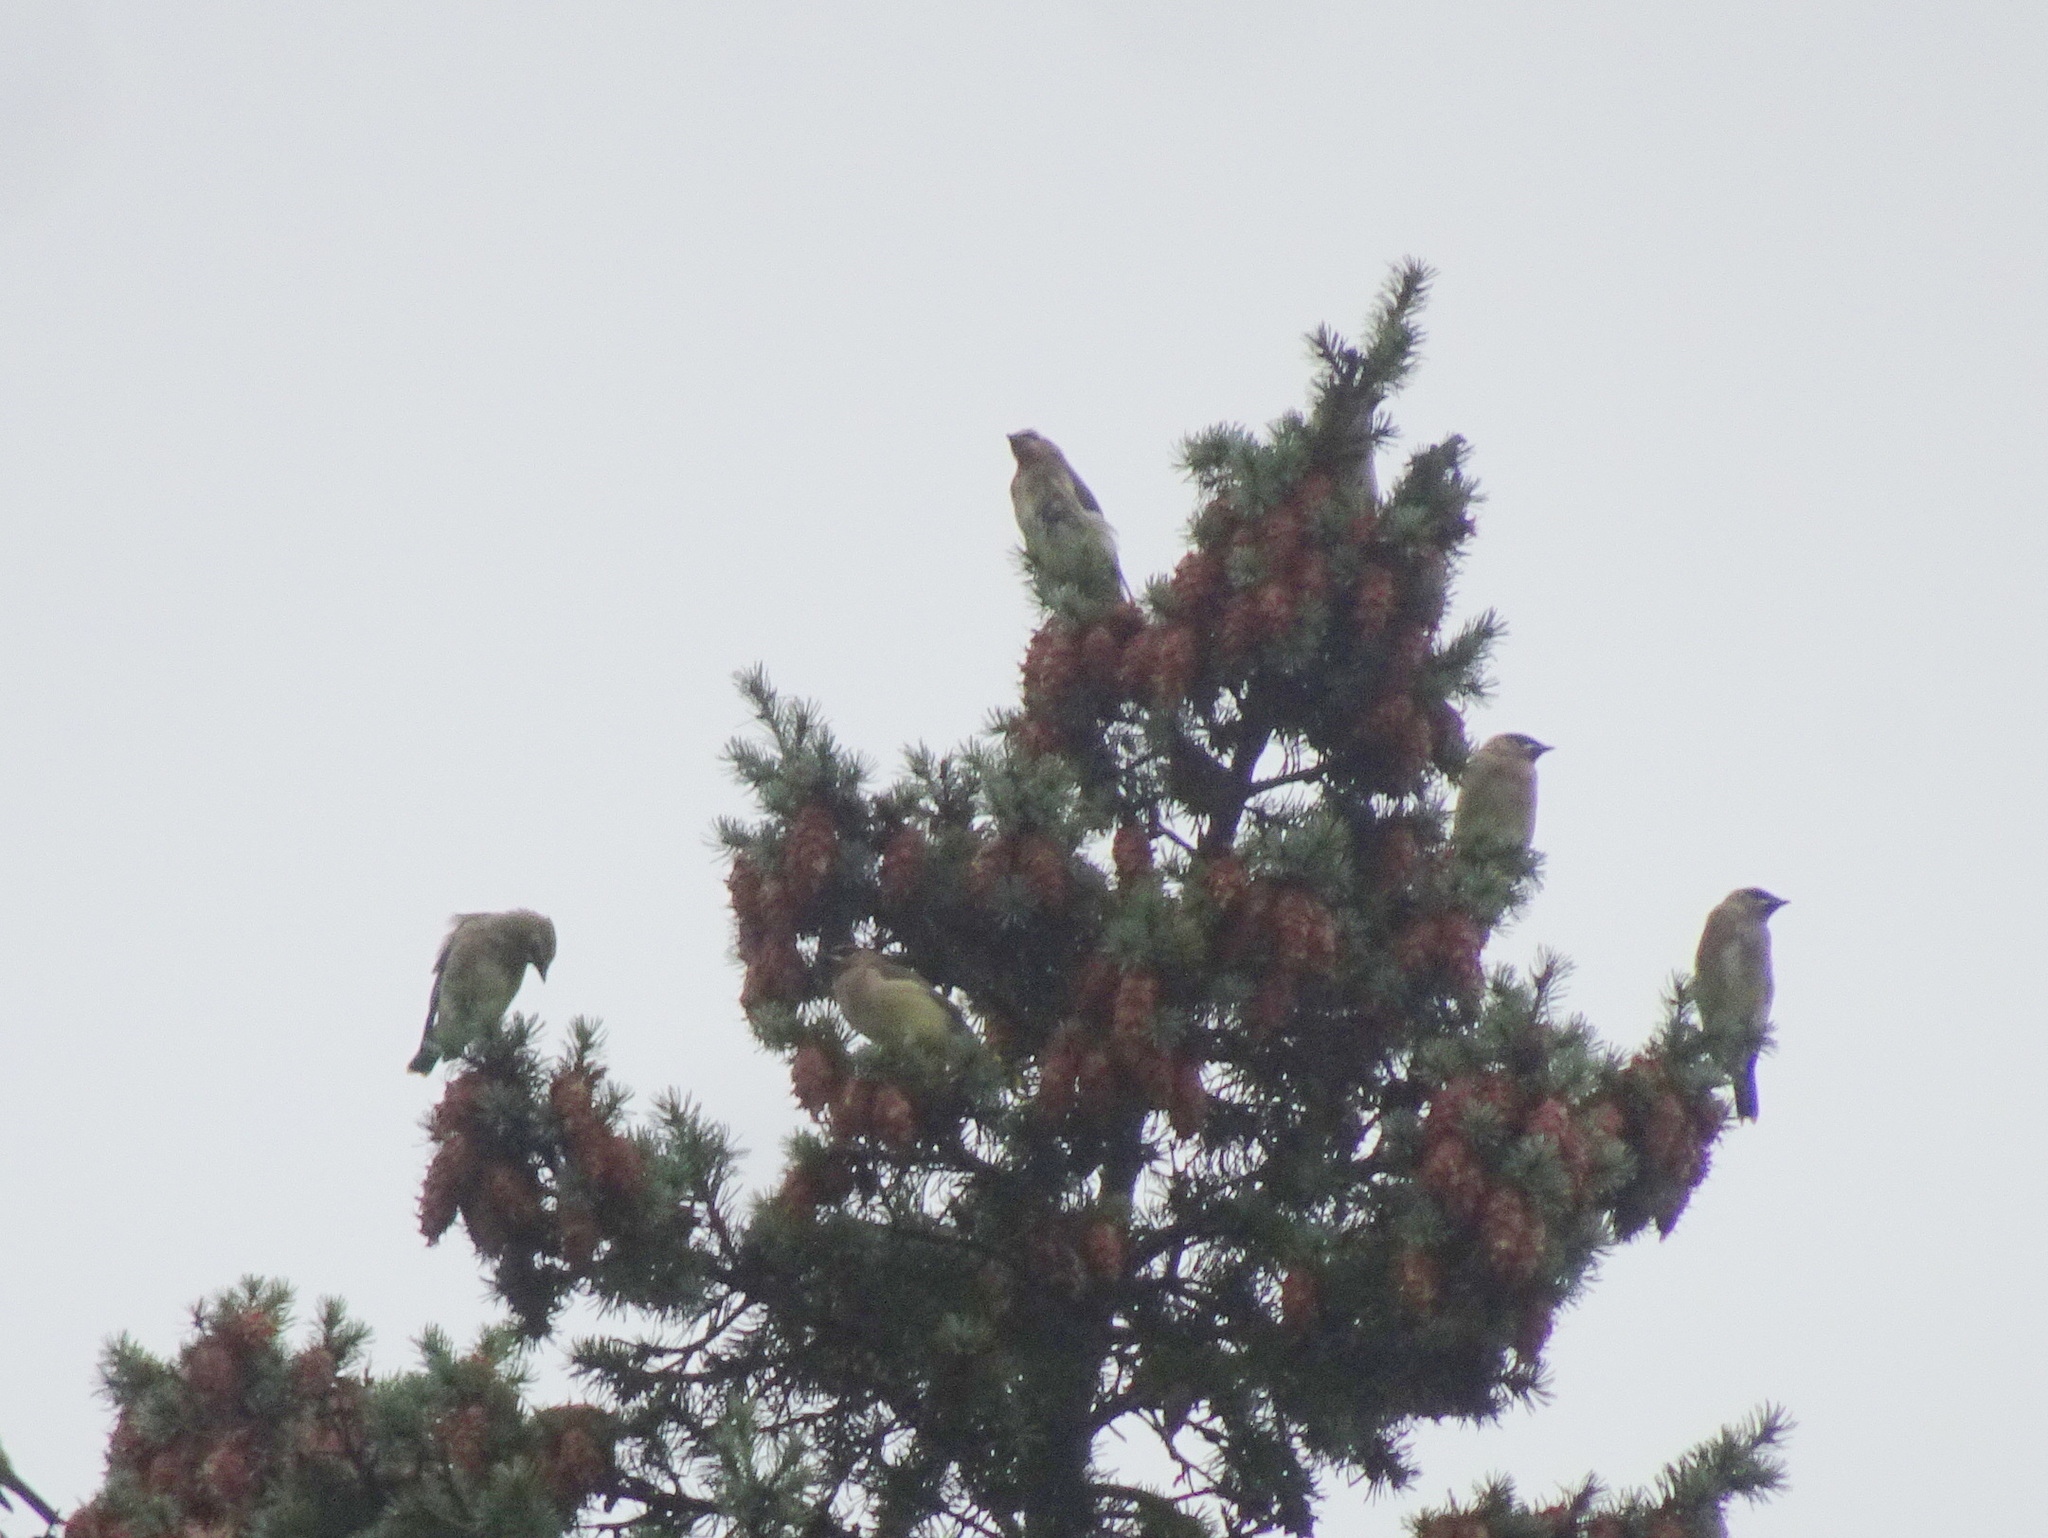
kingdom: Animalia
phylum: Chordata
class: Aves
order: Passeriformes
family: Bombycillidae
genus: Bombycilla
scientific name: Bombycilla cedrorum
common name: Cedar waxwing
